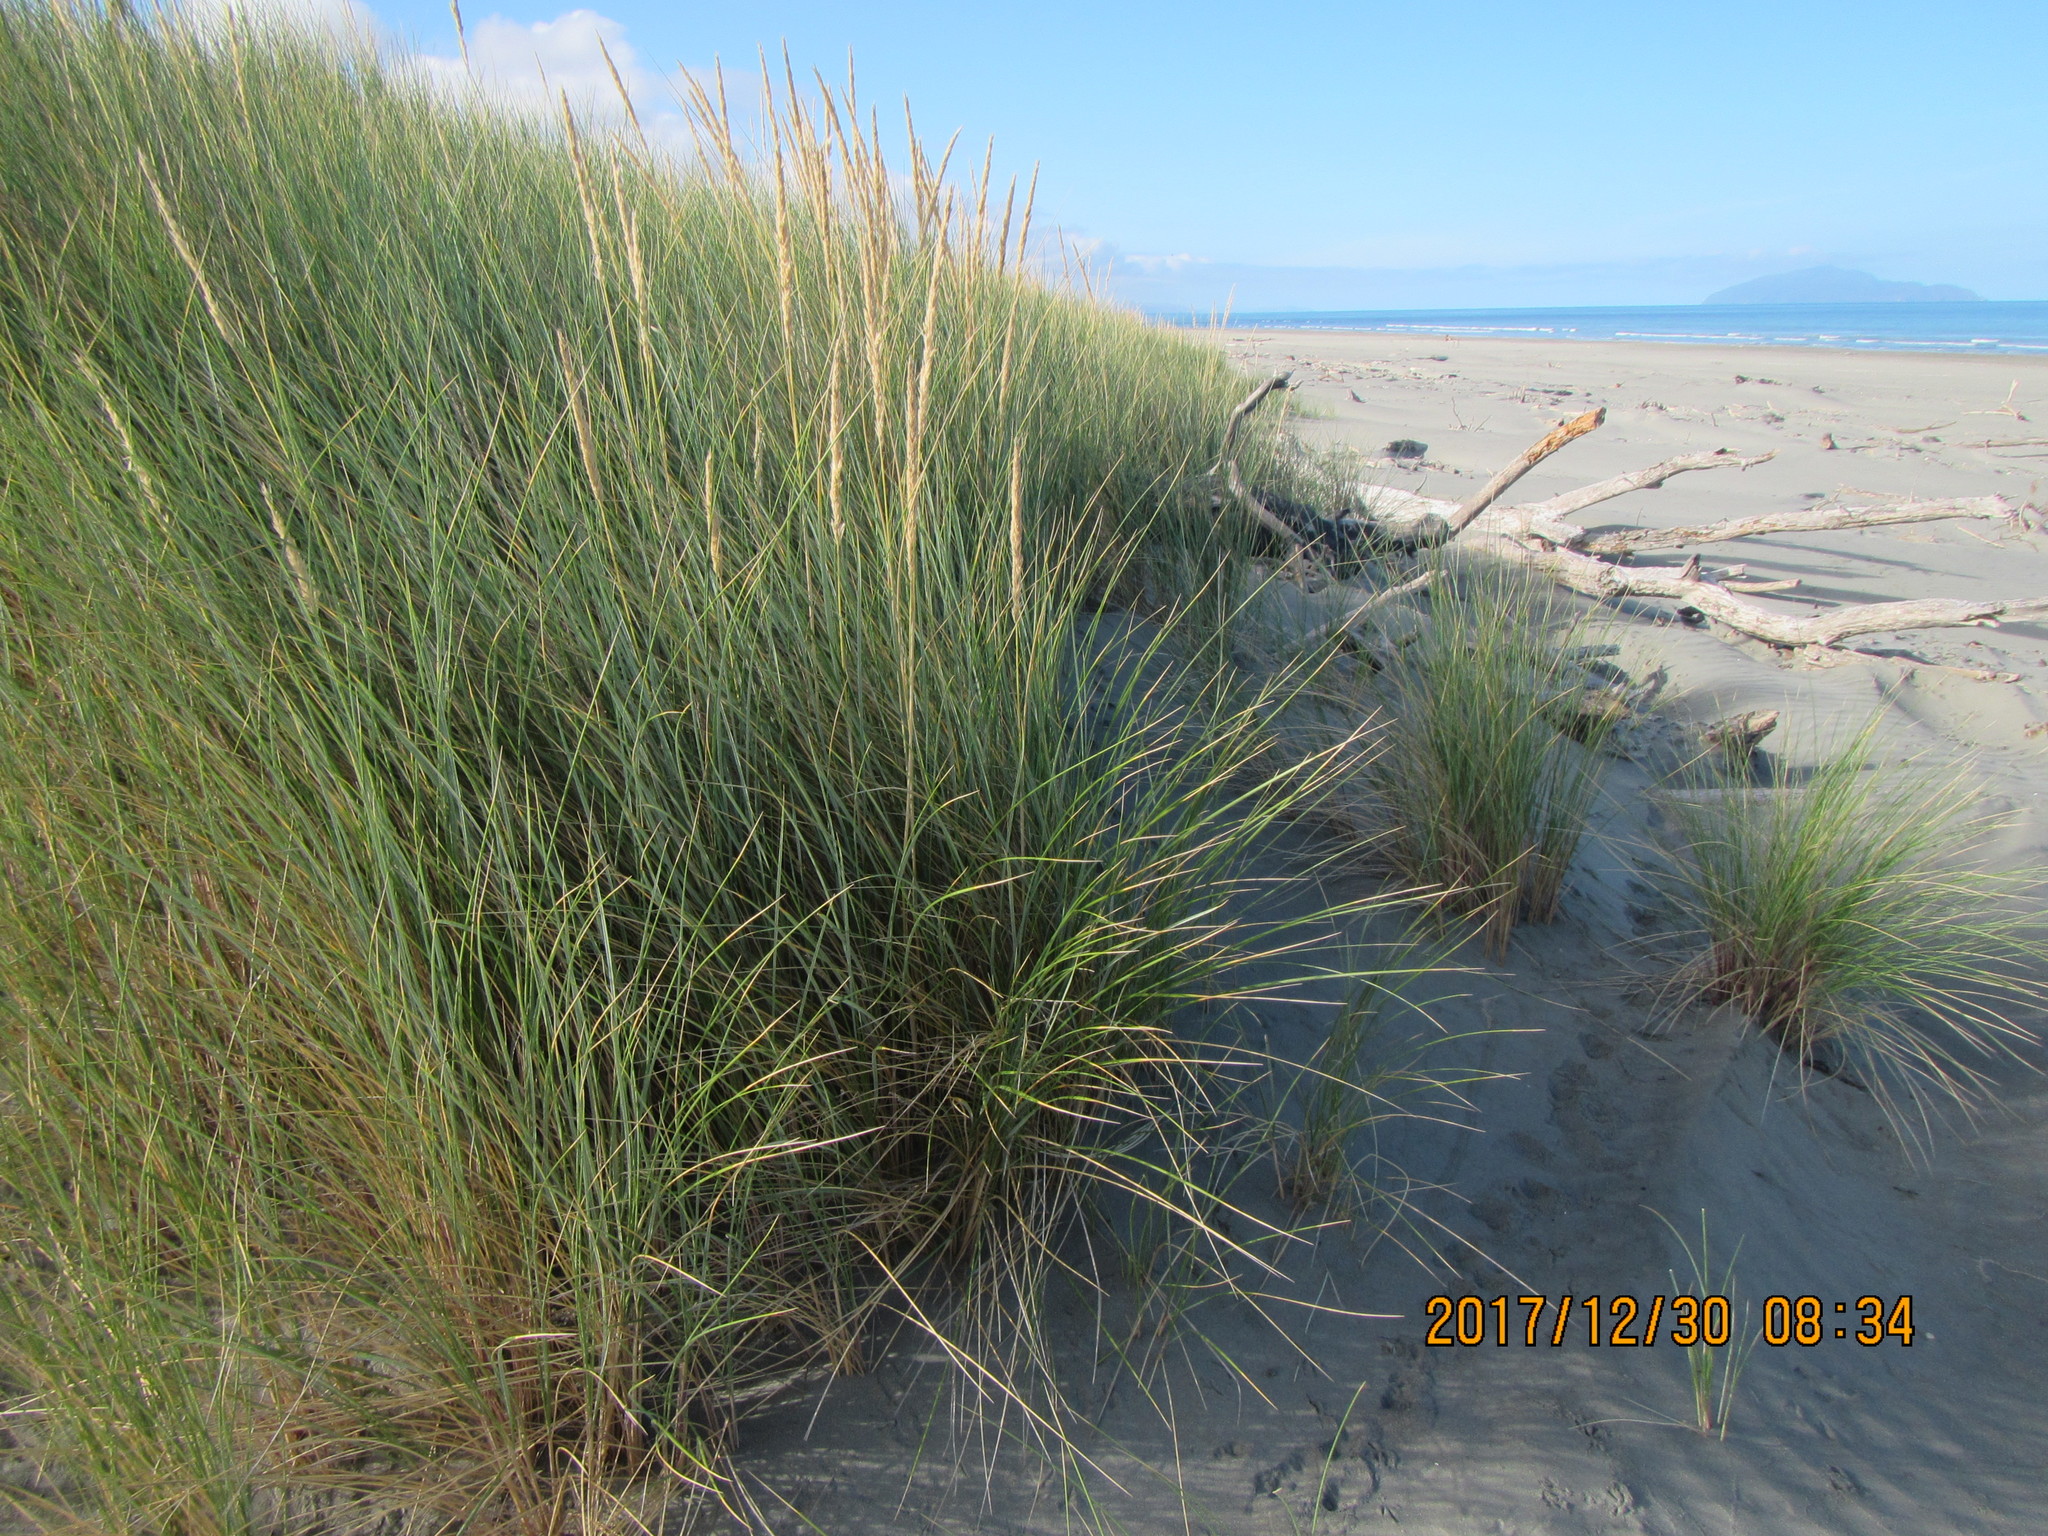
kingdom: Plantae
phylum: Tracheophyta
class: Liliopsida
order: Poales
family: Poaceae
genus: Calamagrostis
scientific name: Calamagrostis arenaria
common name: European beachgrass
